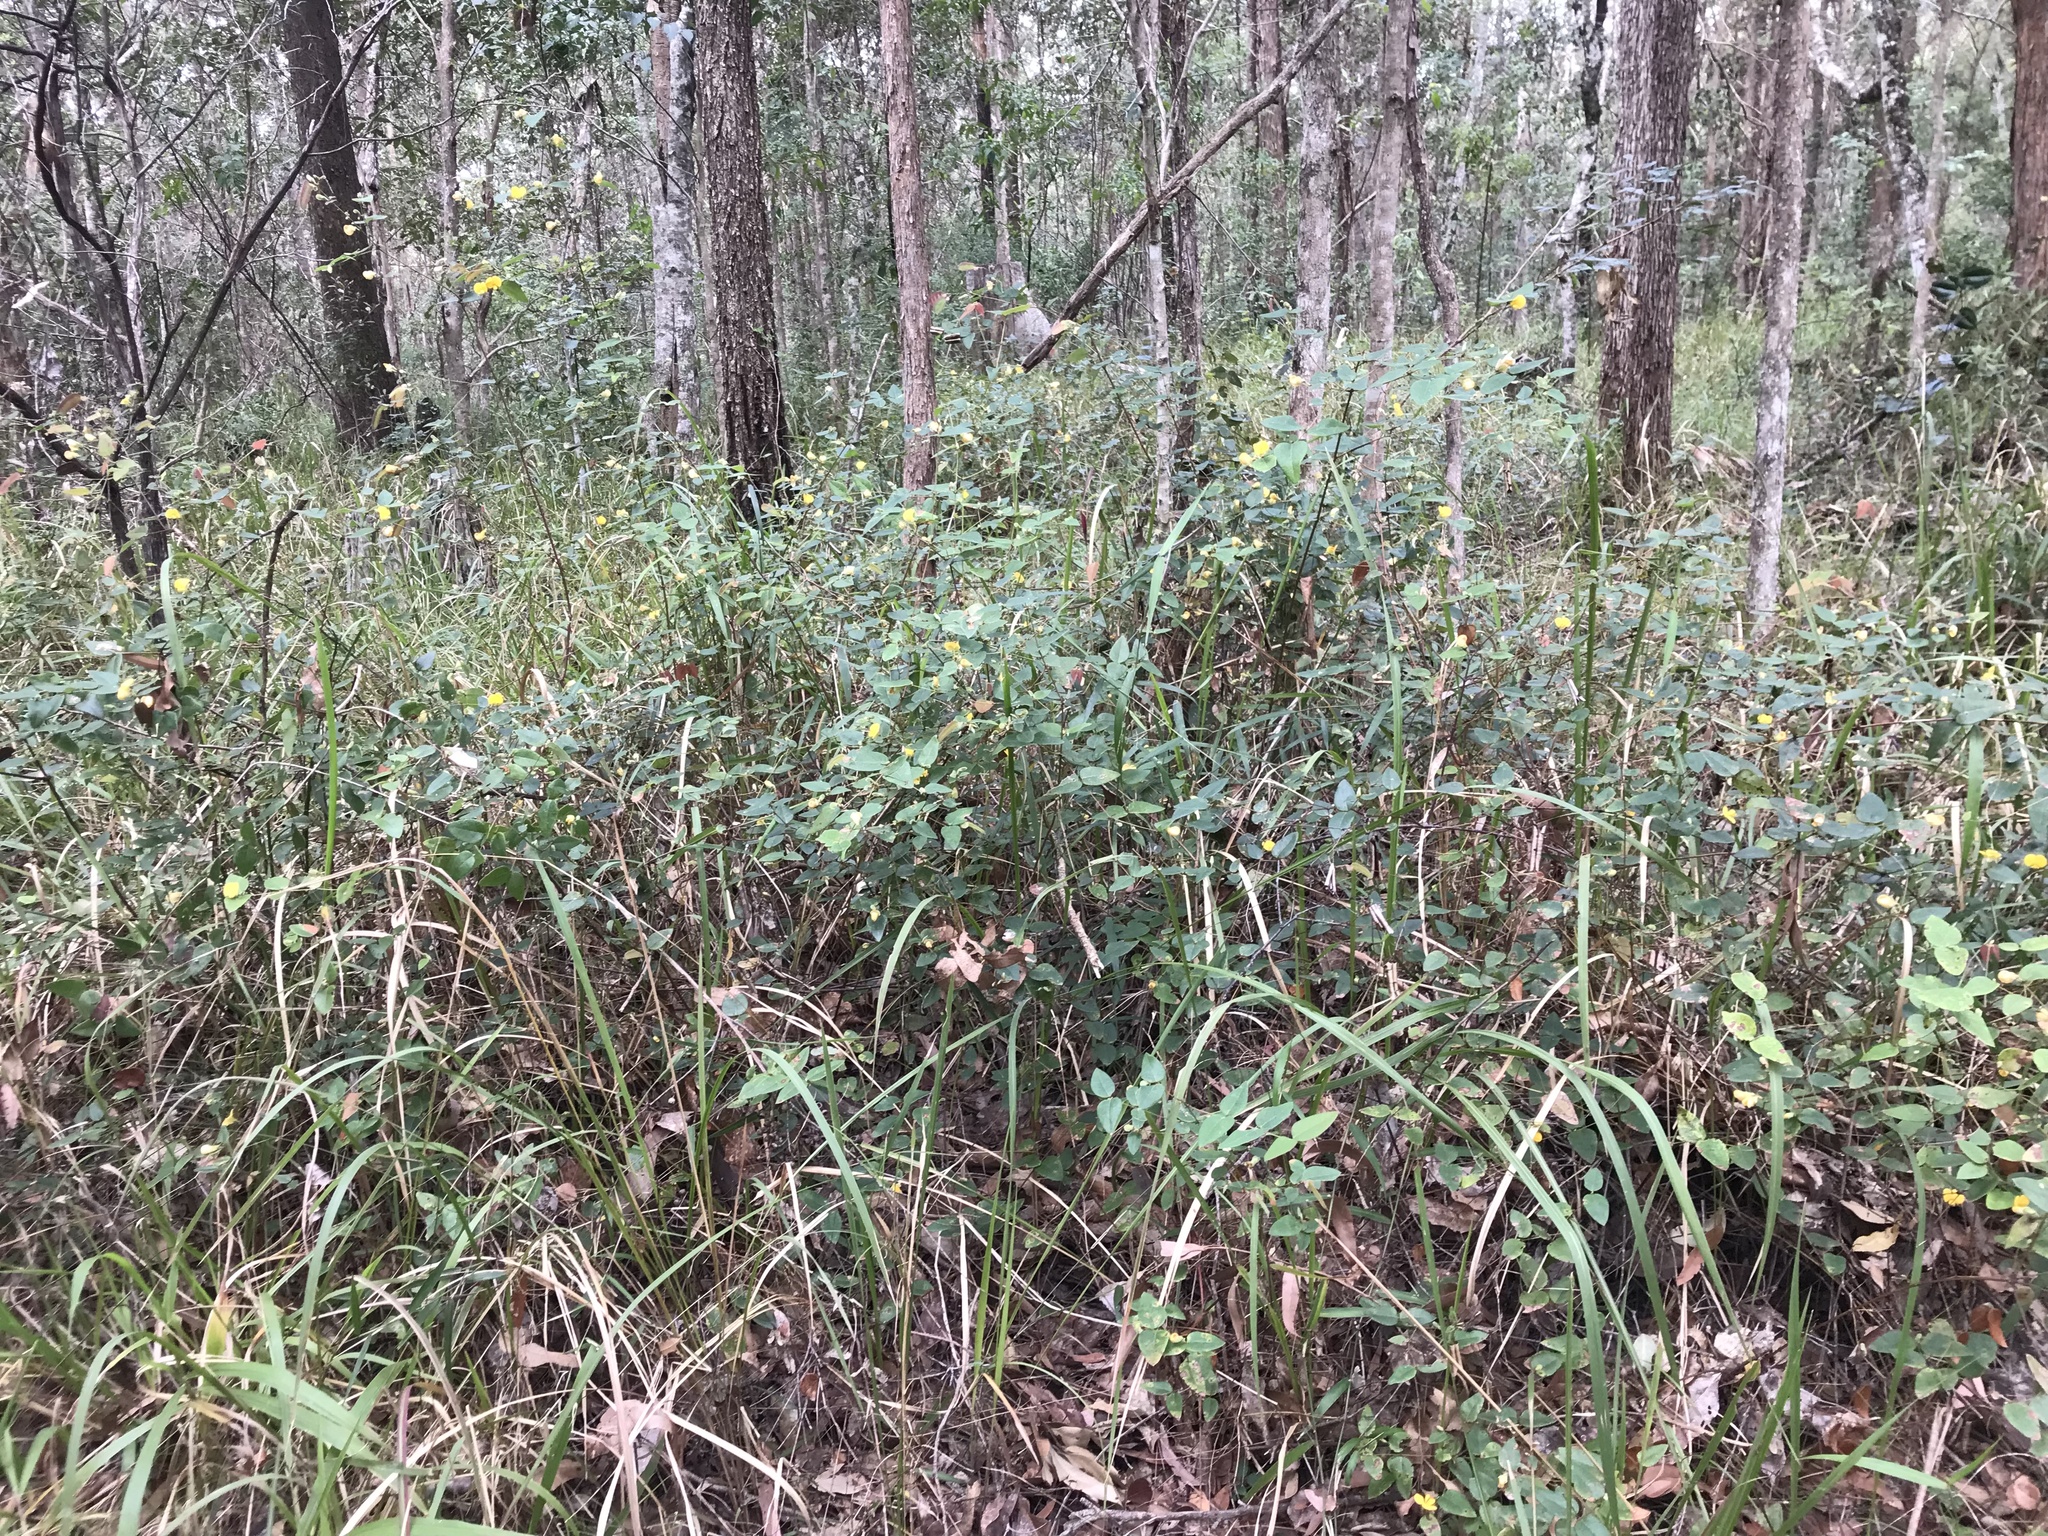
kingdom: Plantae
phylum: Tracheophyta
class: Magnoliopsida
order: Fabales
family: Fabaceae
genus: Platylobium
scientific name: Platylobium formosum
